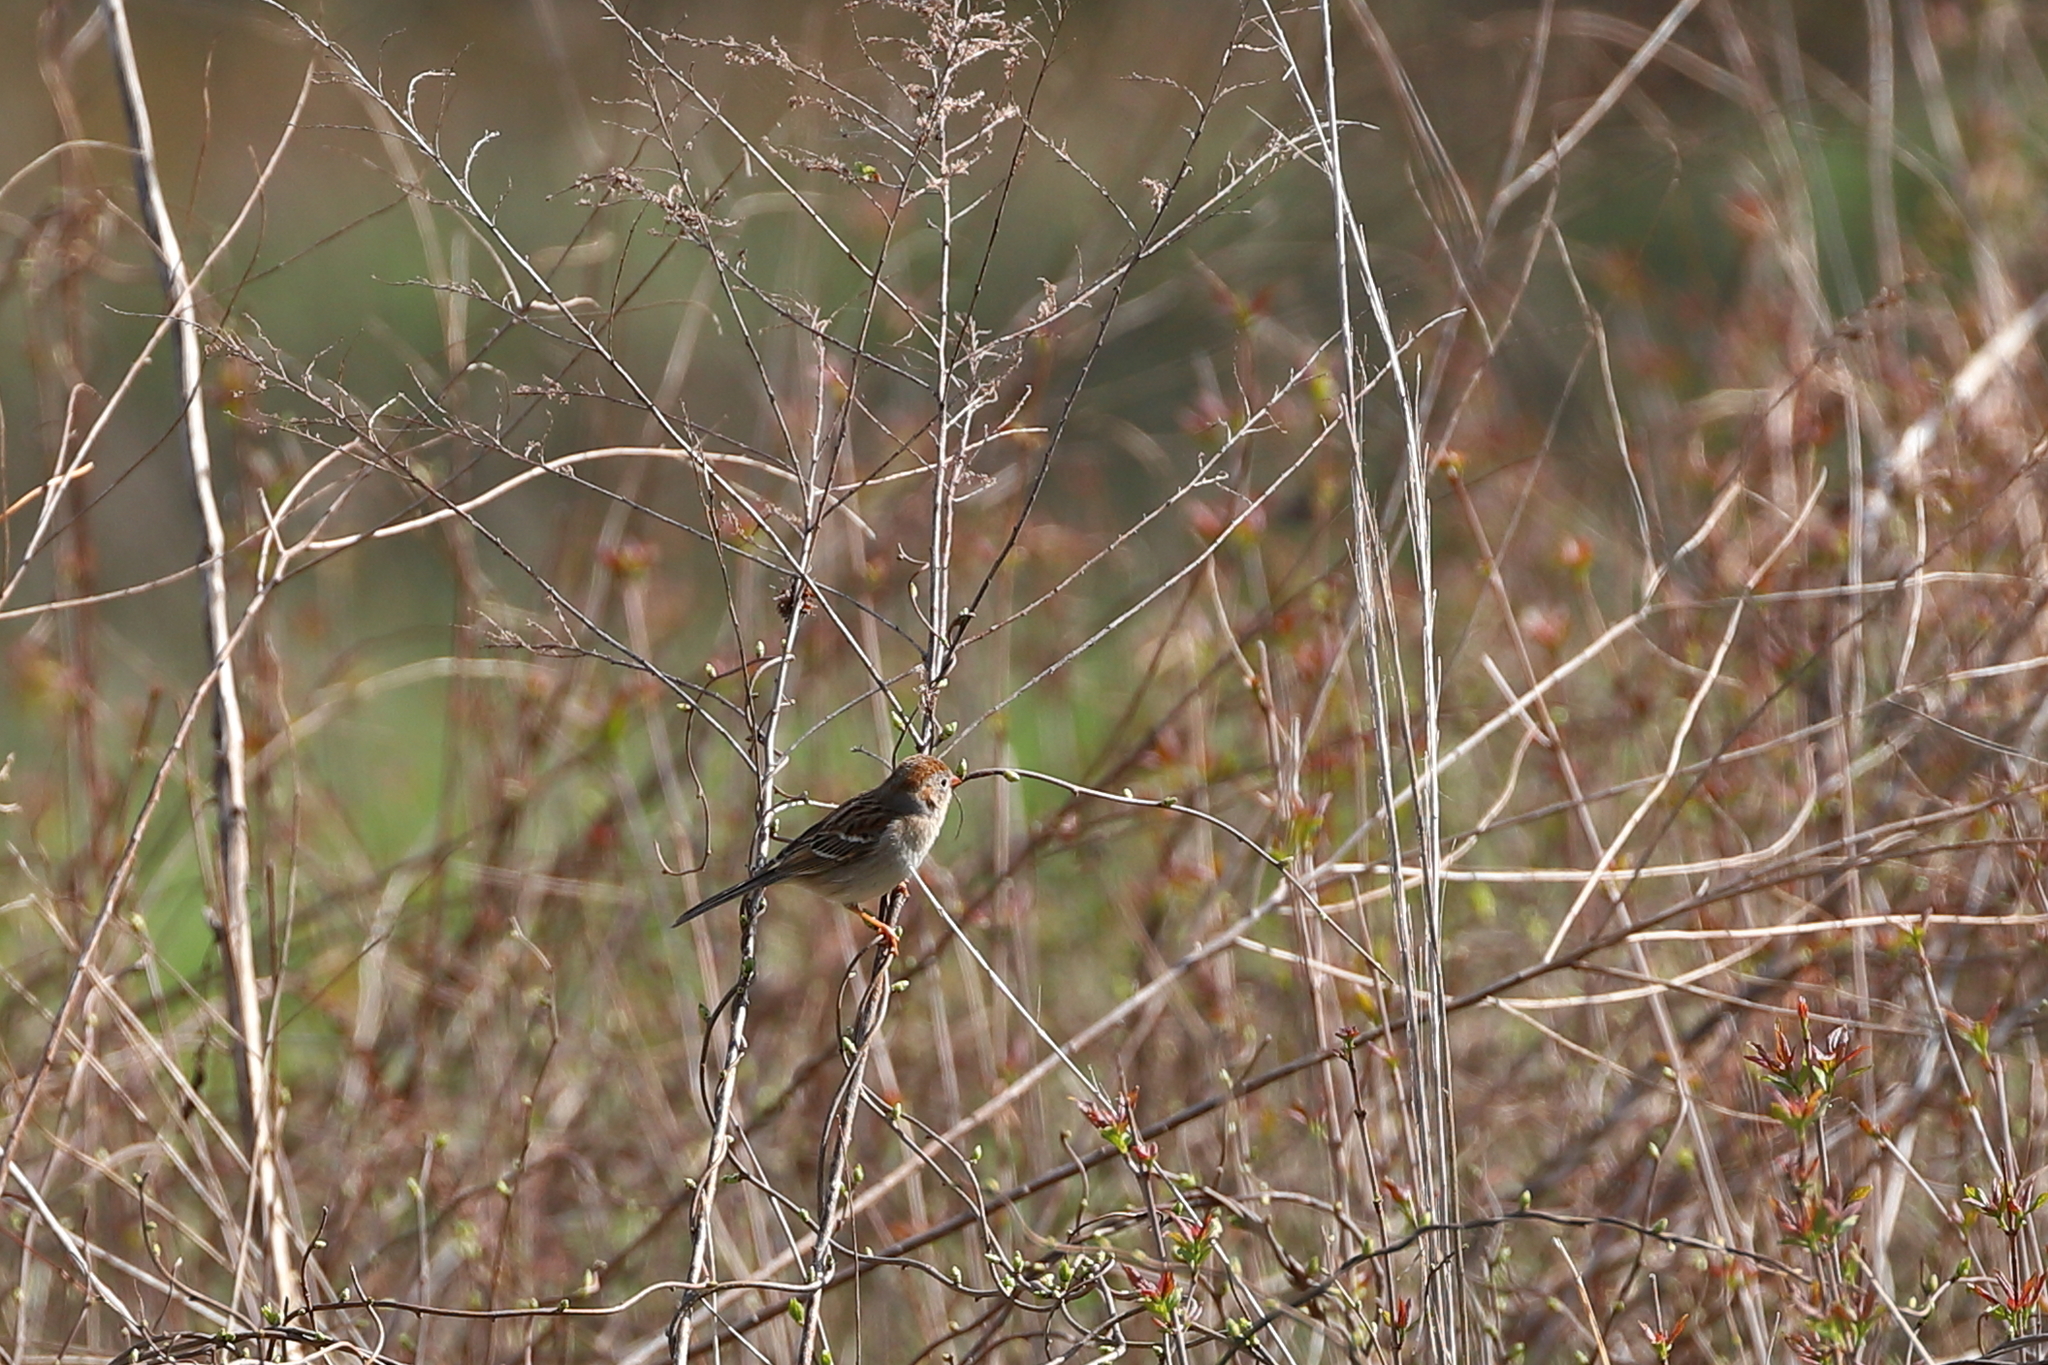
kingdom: Animalia
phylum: Chordata
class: Aves
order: Passeriformes
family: Passerellidae
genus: Spizella
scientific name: Spizella pusilla
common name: Field sparrow
